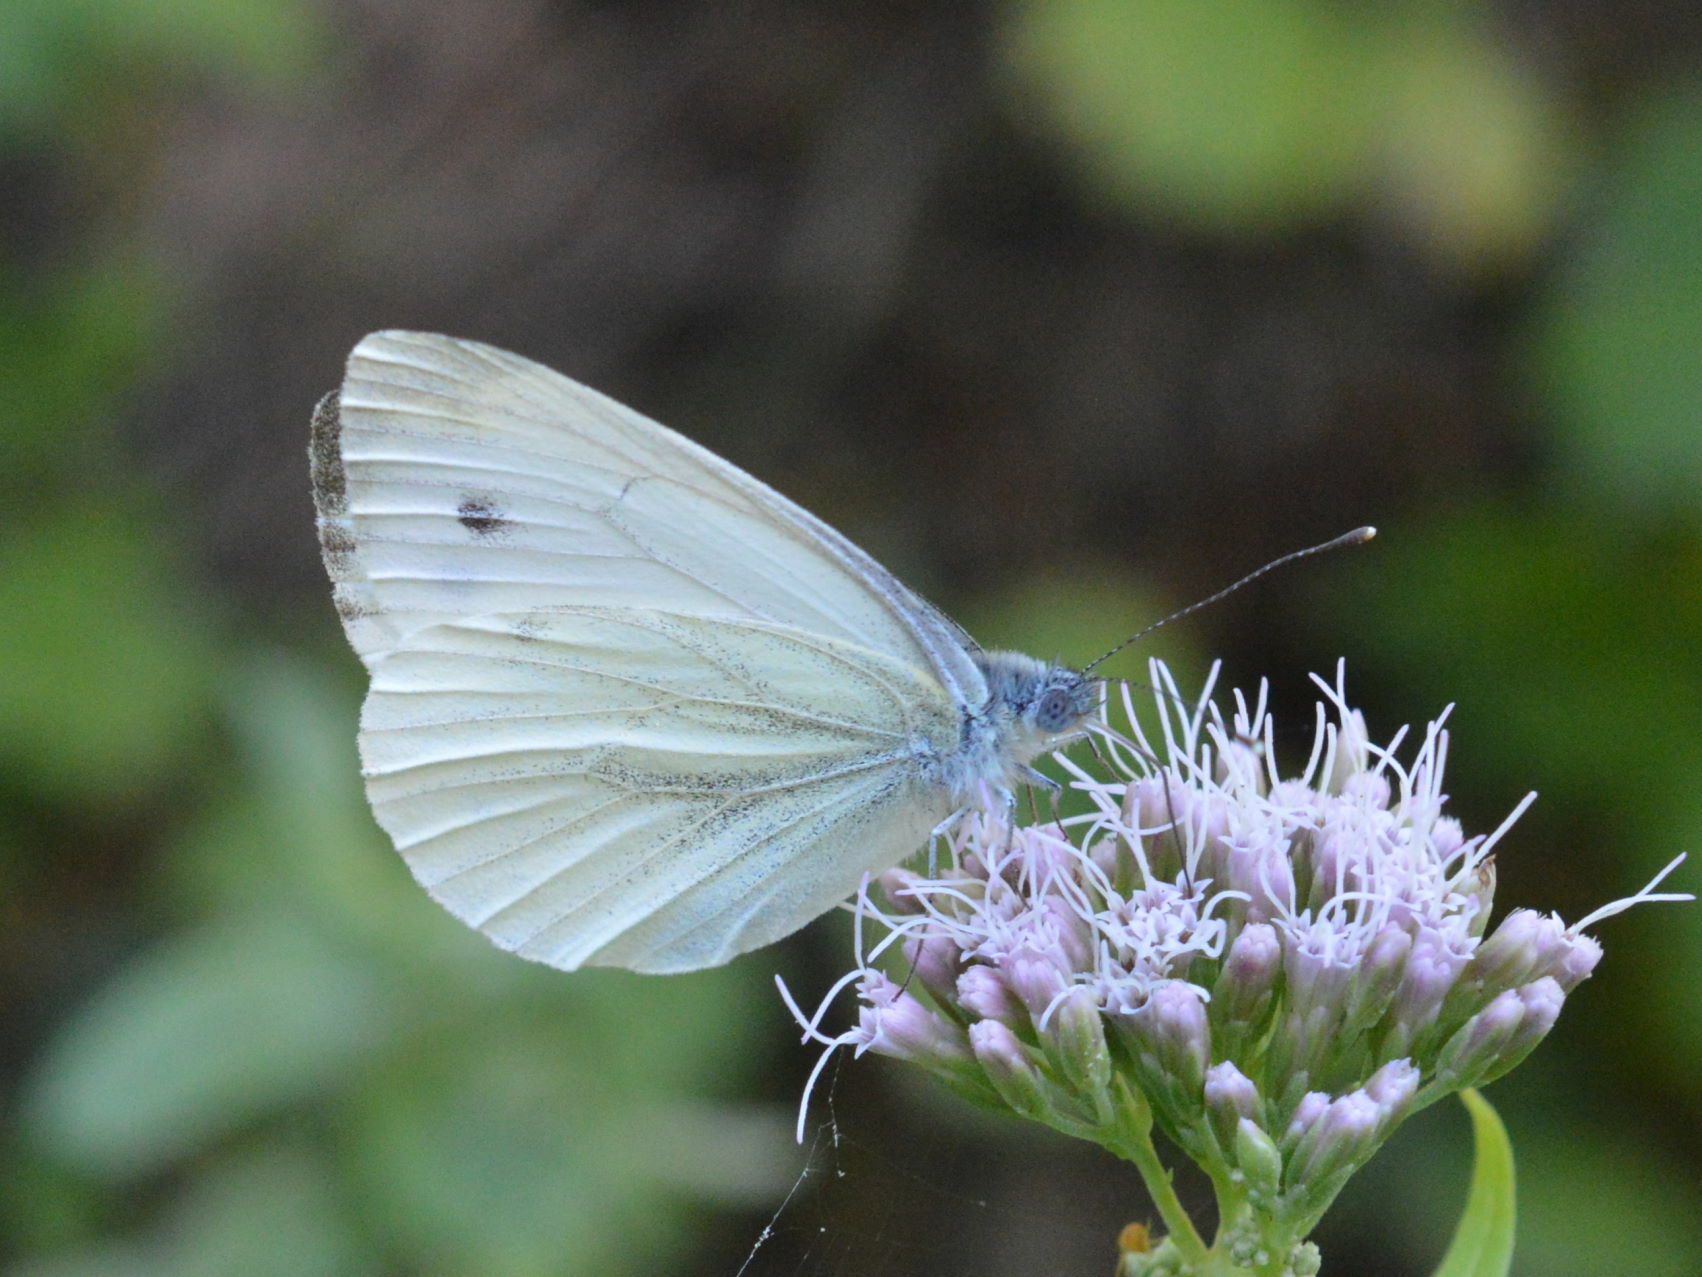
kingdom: Animalia
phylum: Arthropoda
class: Insecta
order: Lepidoptera
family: Pieridae
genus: Pieris
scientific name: Pieris napi
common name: Green-veined white
